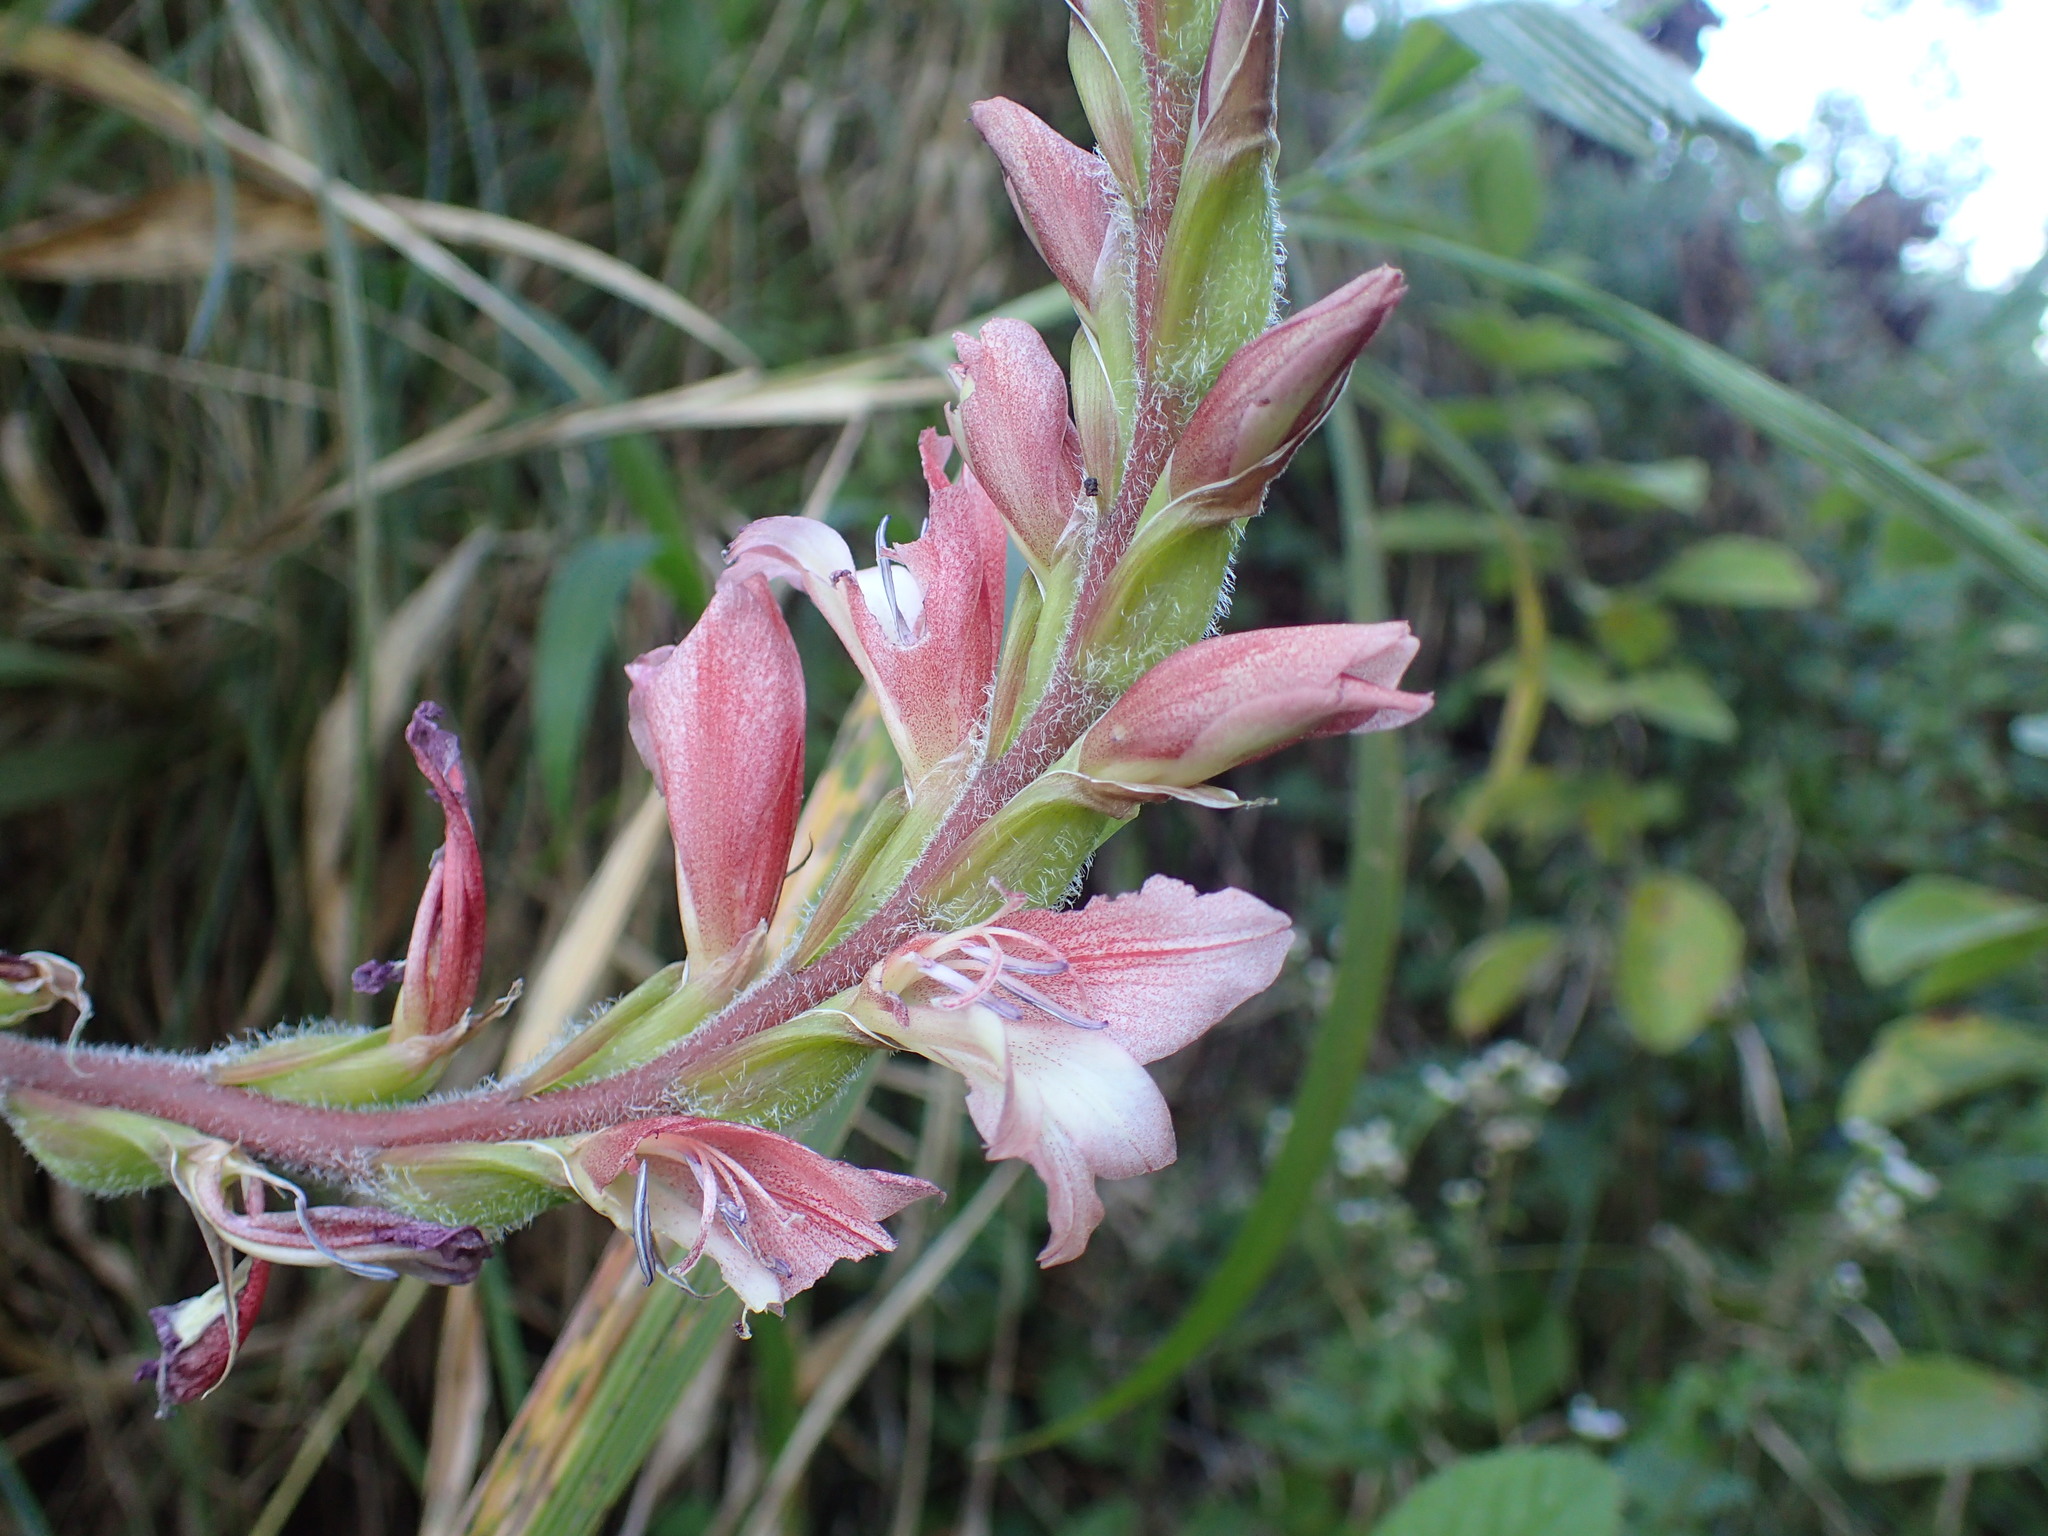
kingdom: Plantae
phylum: Tracheophyta
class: Liliopsida
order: Asparagales
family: Iridaceae
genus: Gladiolus
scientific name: Gladiolus sericeovillosus
